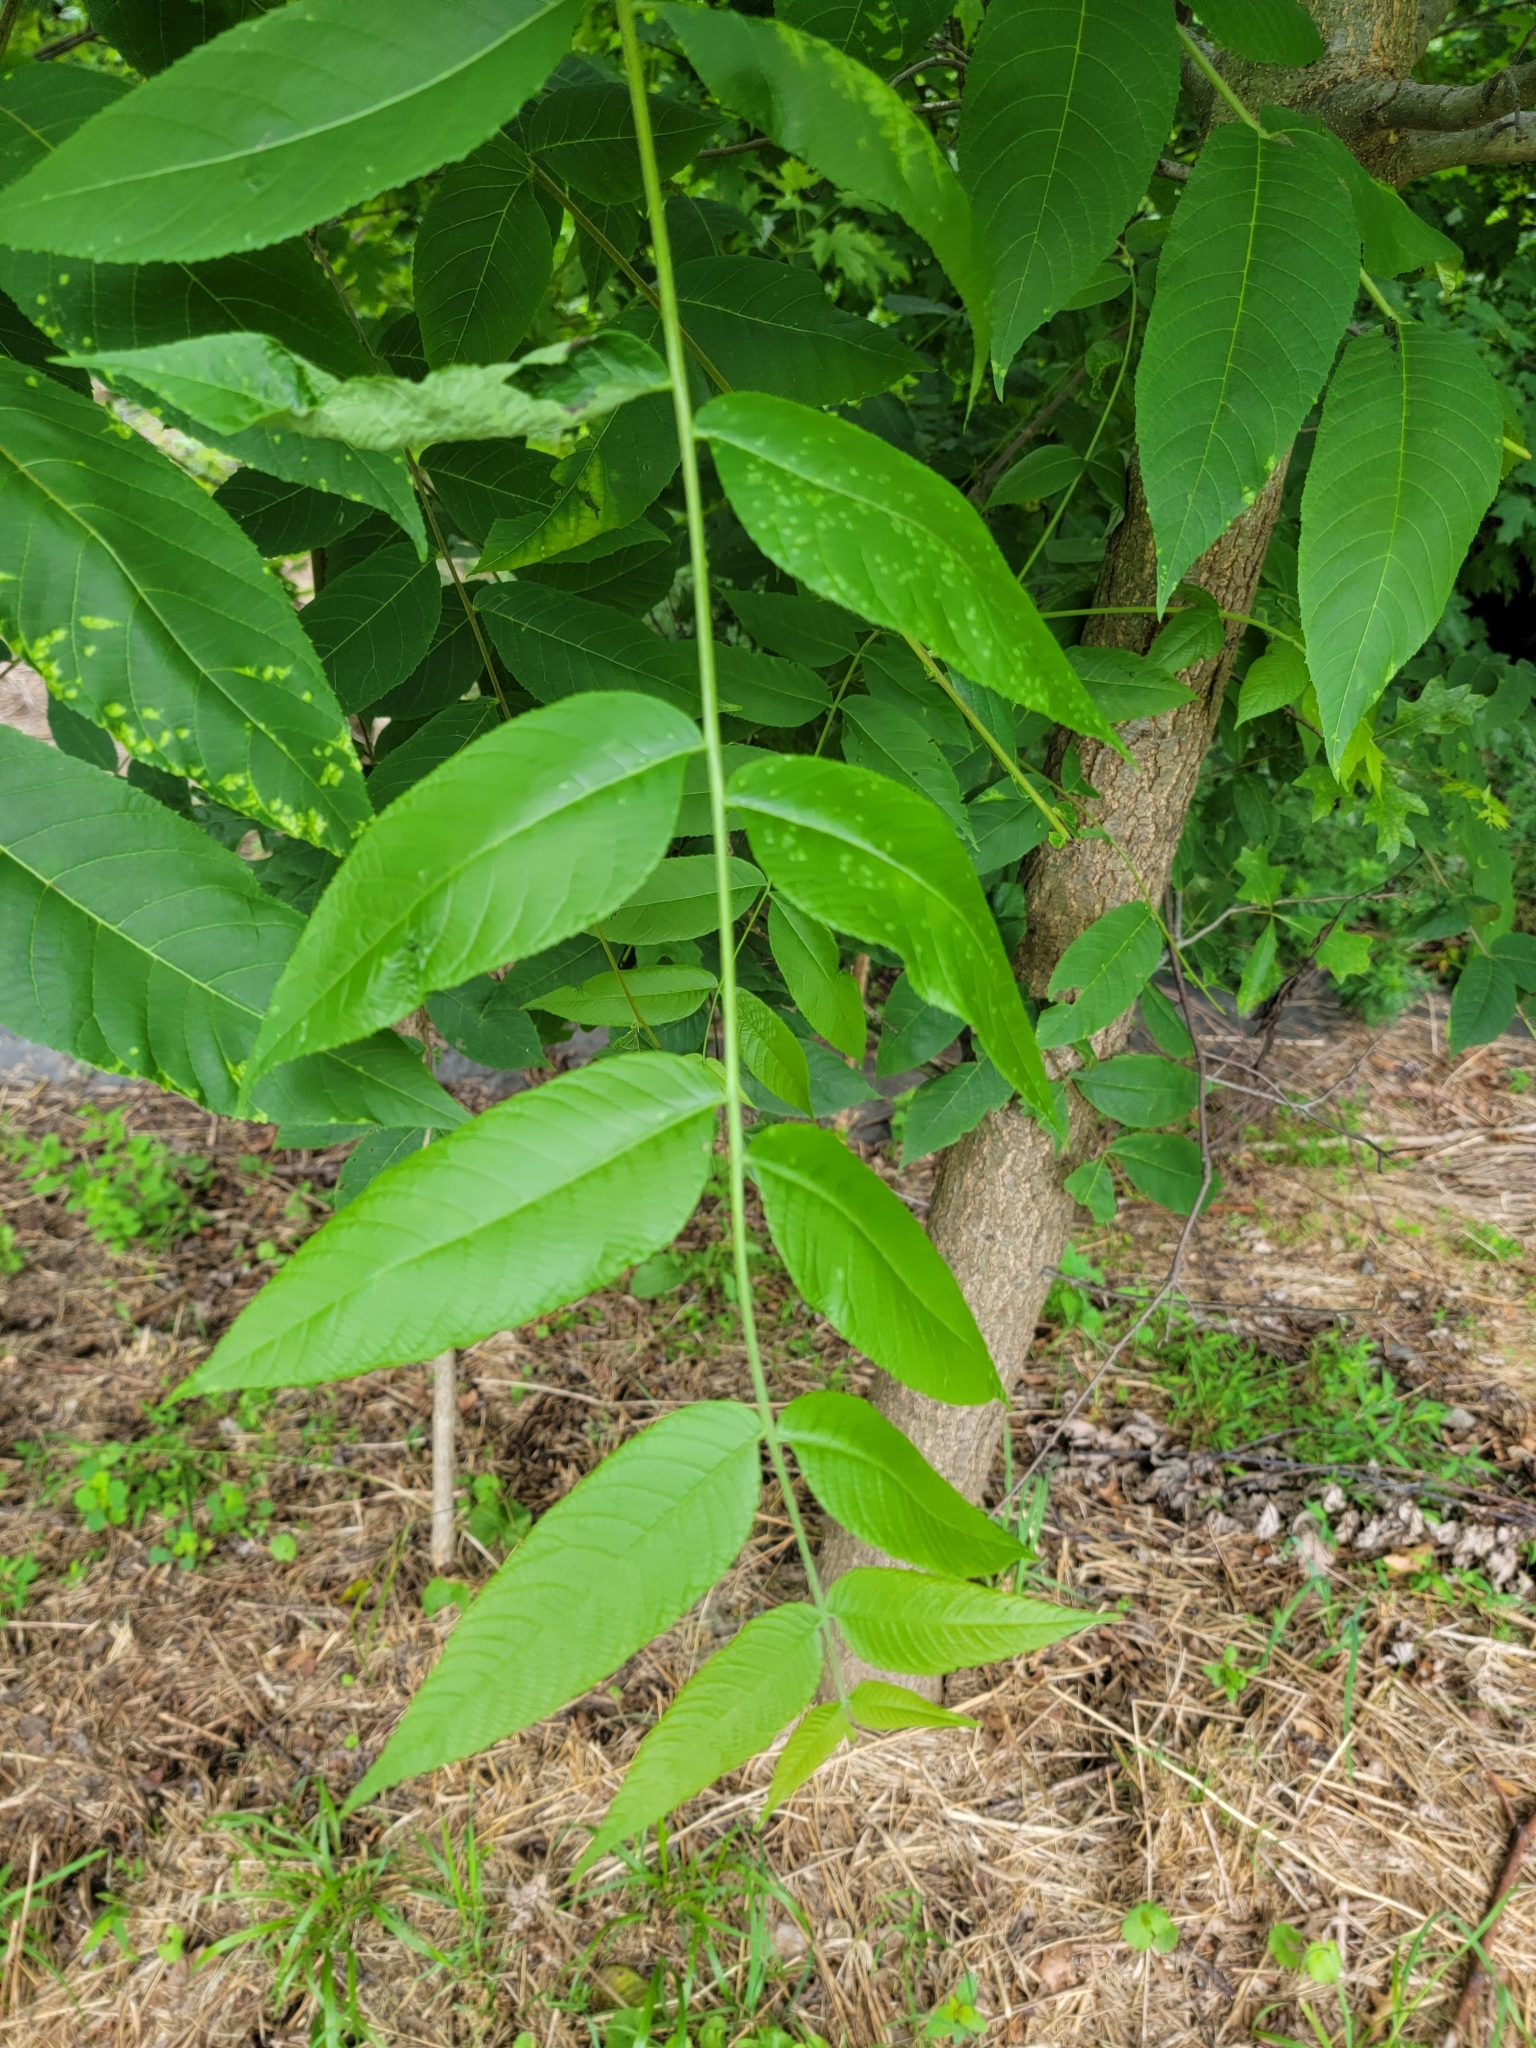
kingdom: Plantae
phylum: Tracheophyta
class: Magnoliopsida
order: Fagales
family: Juglandaceae
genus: Juglans
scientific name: Juglans nigra
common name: Black walnut
